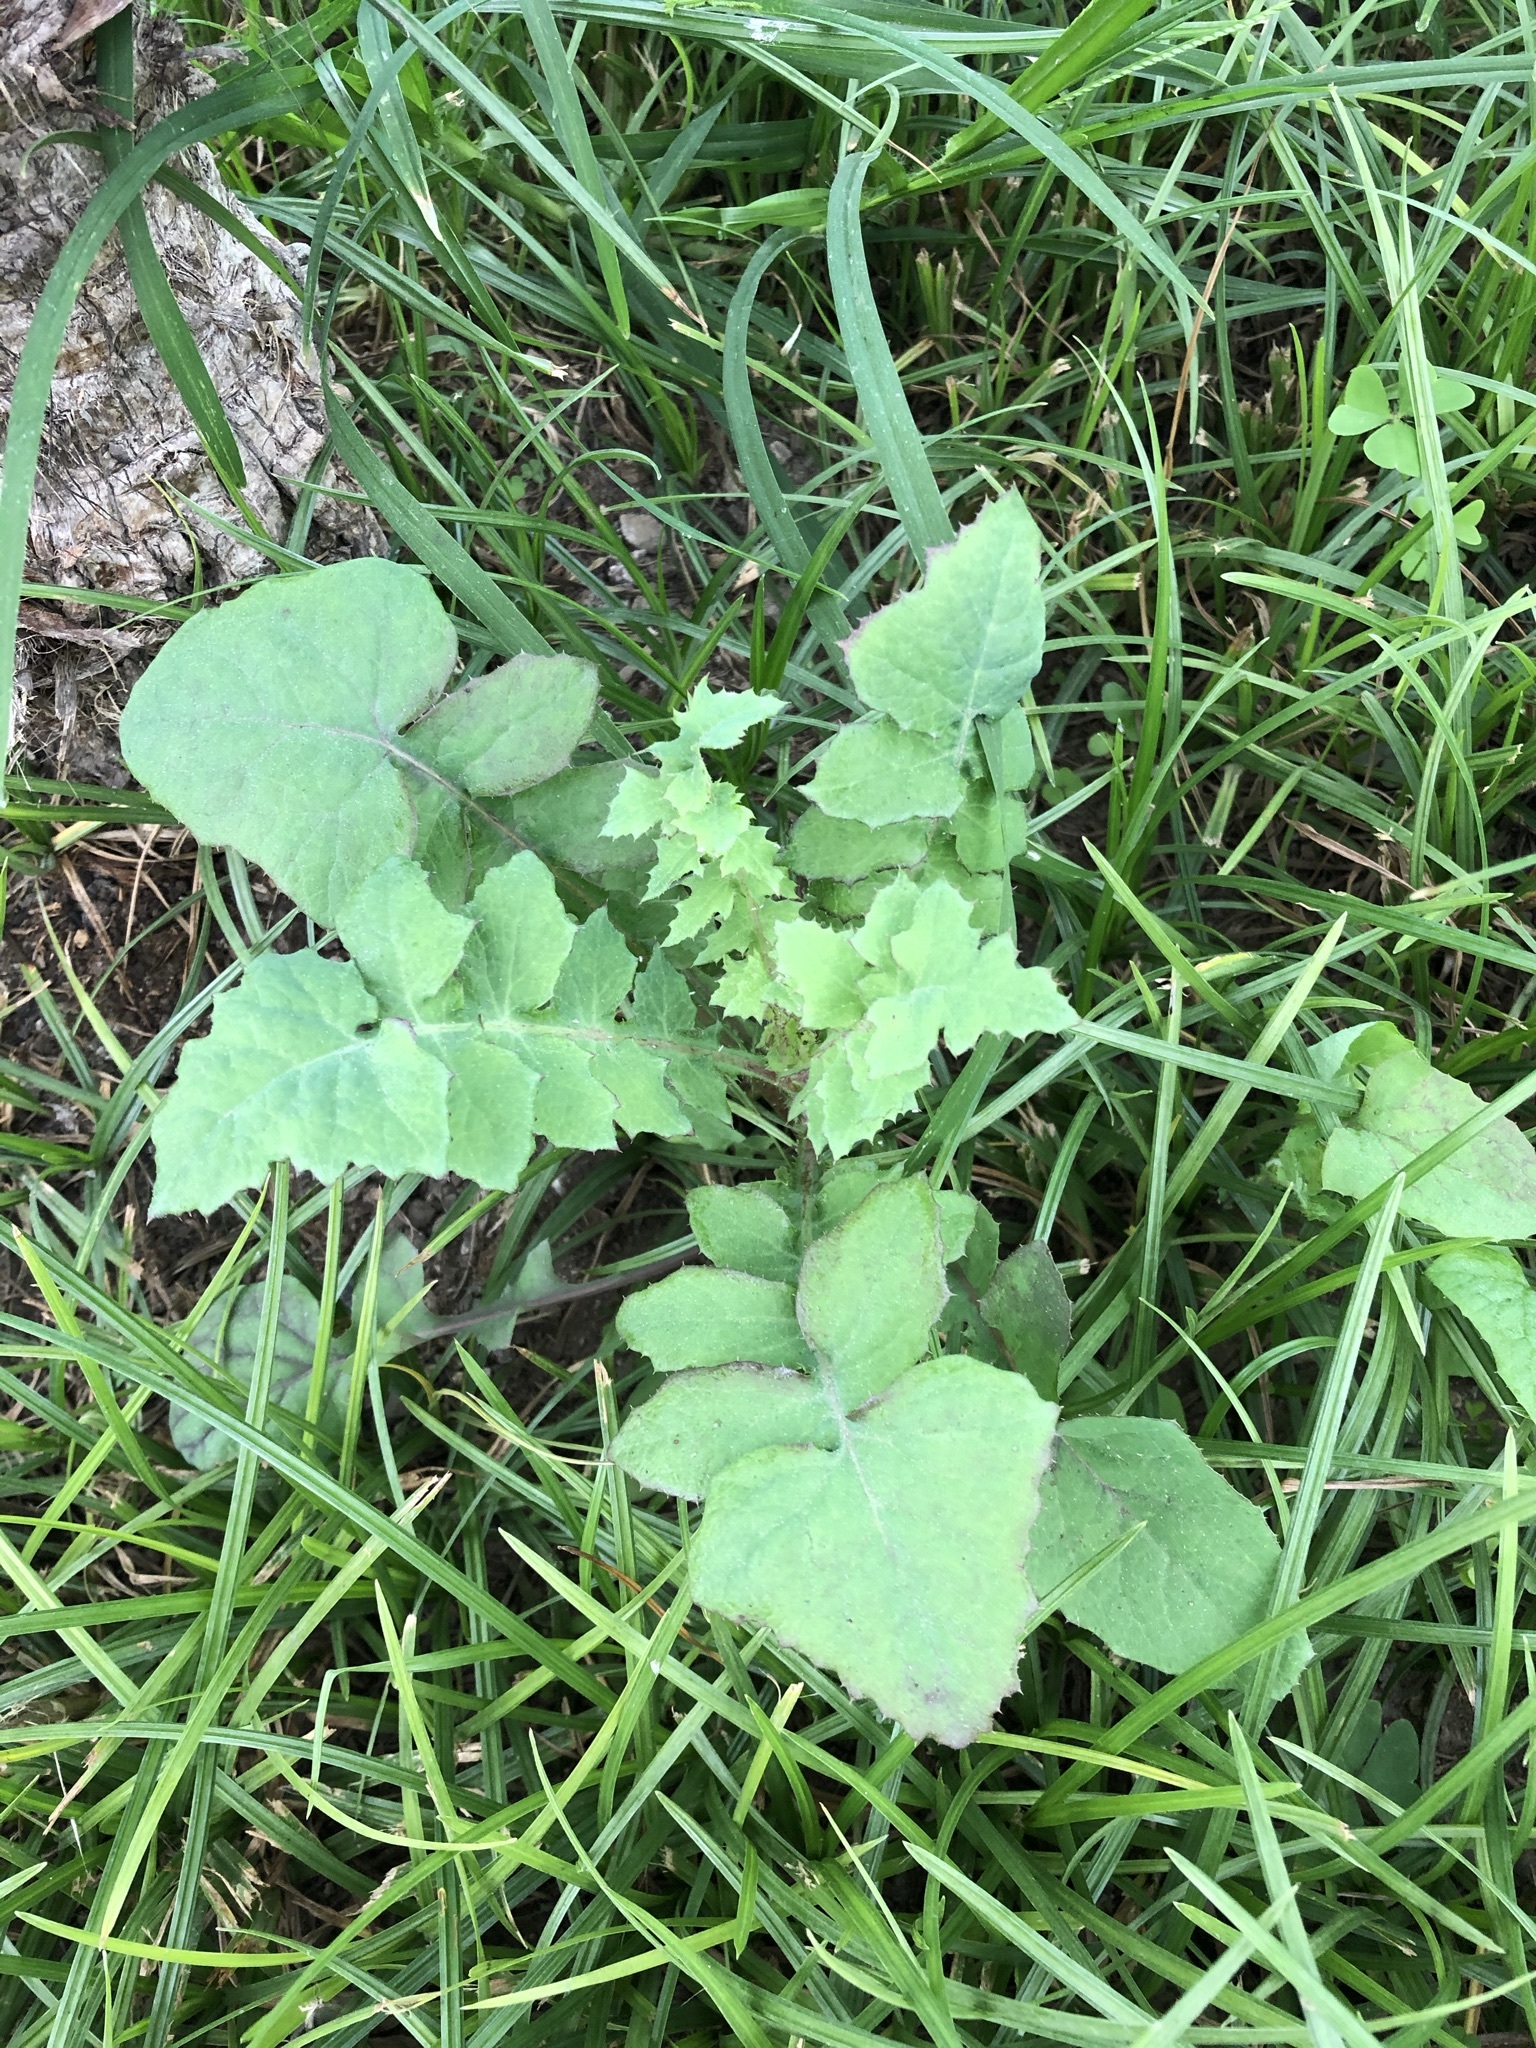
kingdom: Plantae
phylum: Tracheophyta
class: Magnoliopsida
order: Asterales
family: Asteraceae
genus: Sonchus
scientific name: Sonchus oleraceus
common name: Common sowthistle
